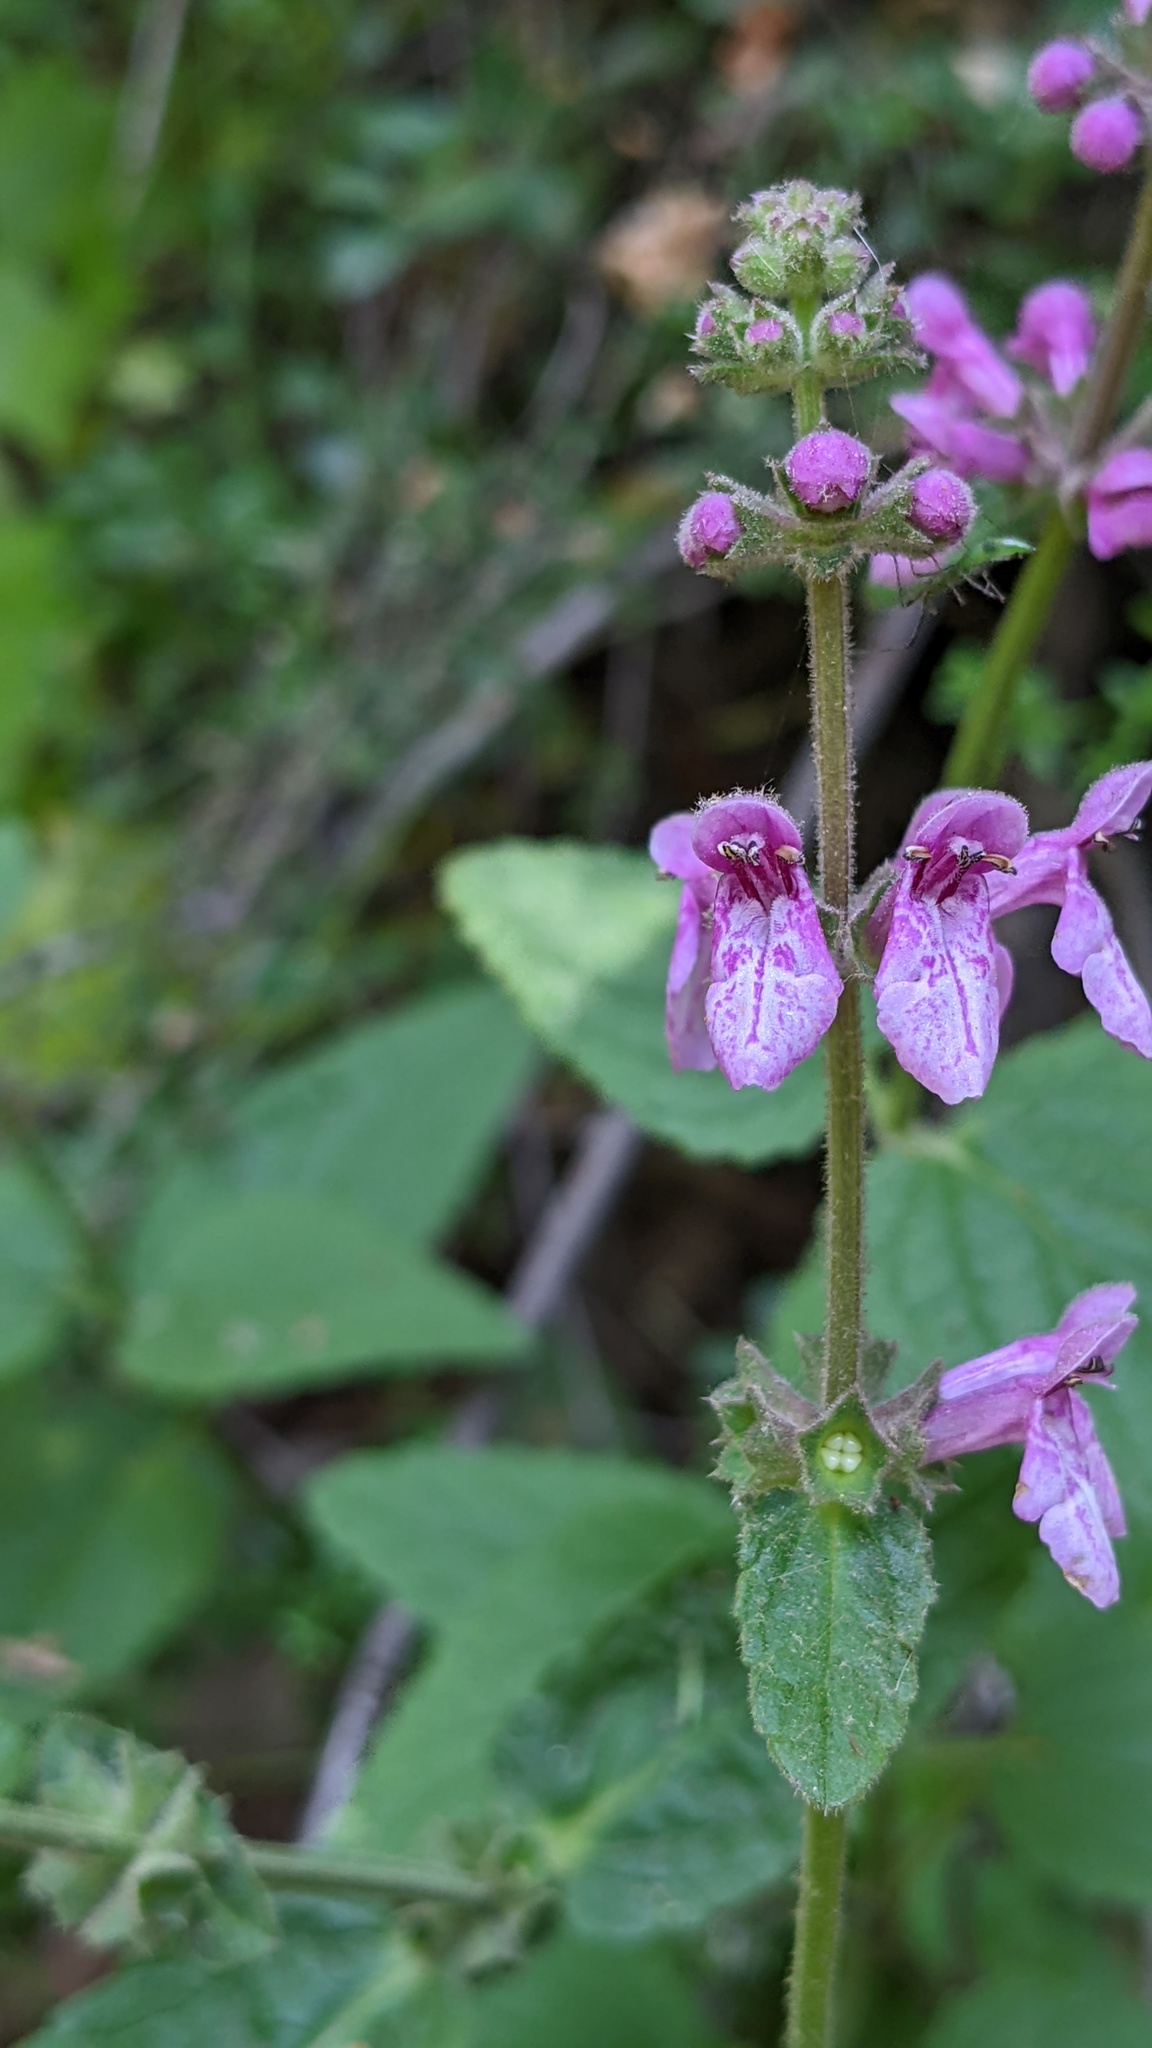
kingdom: Plantae
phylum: Tracheophyta
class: Magnoliopsida
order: Lamiales
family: Lamiaceae
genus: Stachys
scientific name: Stachys bullata
